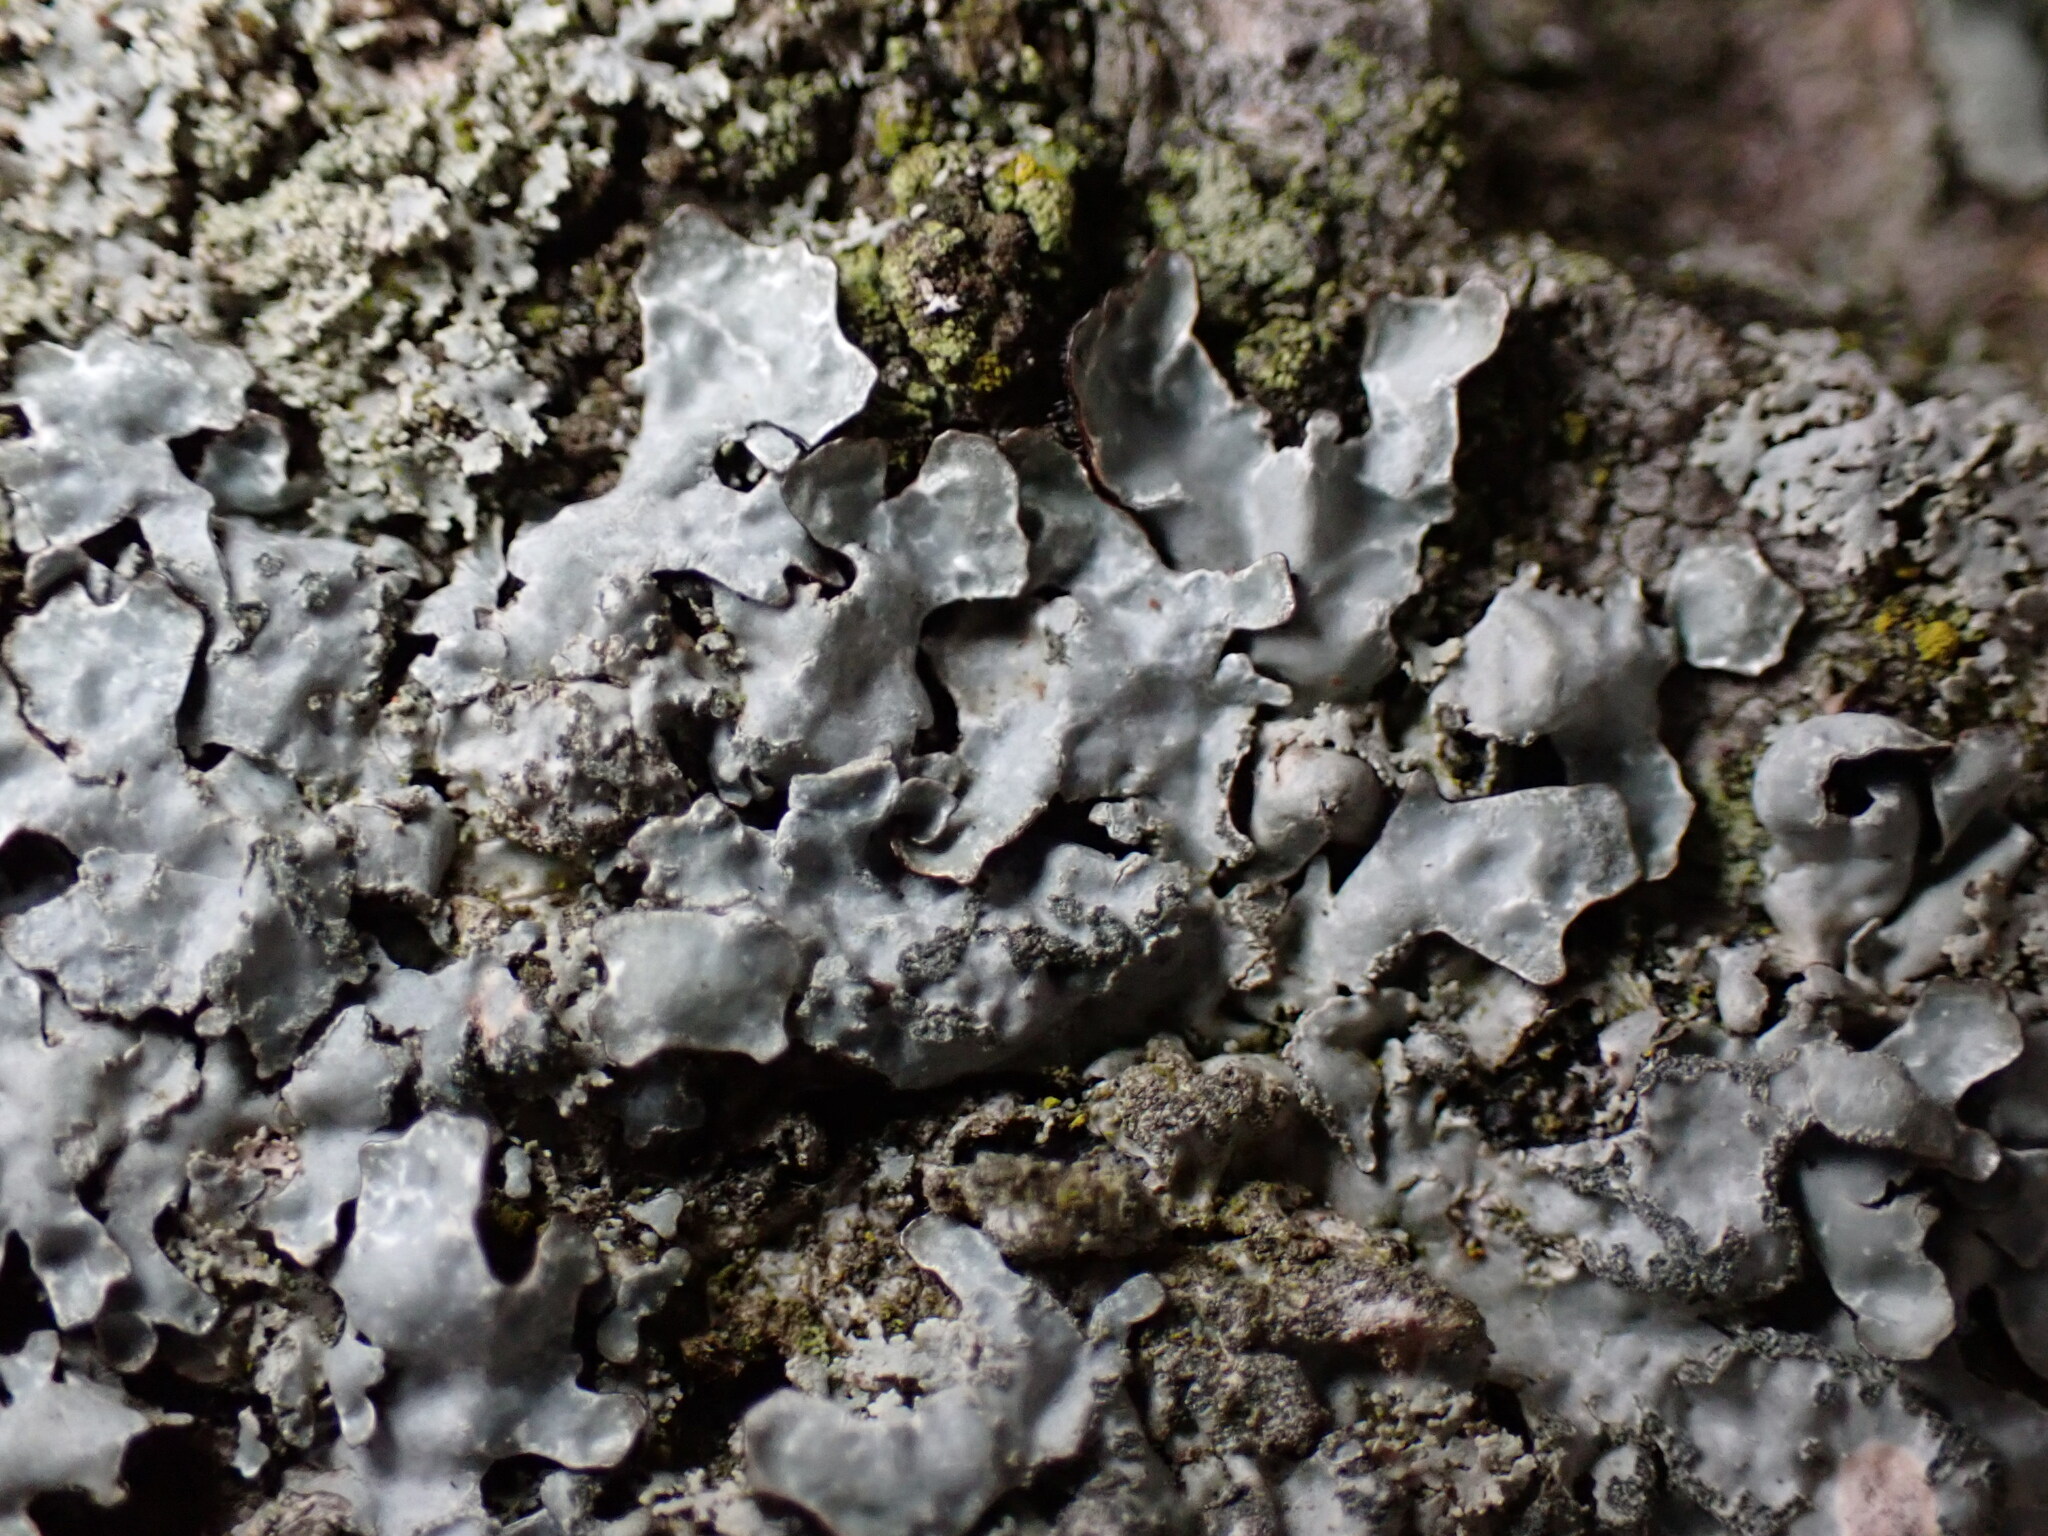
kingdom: Fungi
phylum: Ascomycota
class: Lecanoromycetes
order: Lecanorales
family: Parmeliaceae
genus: Parmelia
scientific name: Parmelia sulcata
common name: Netted shield lichen
